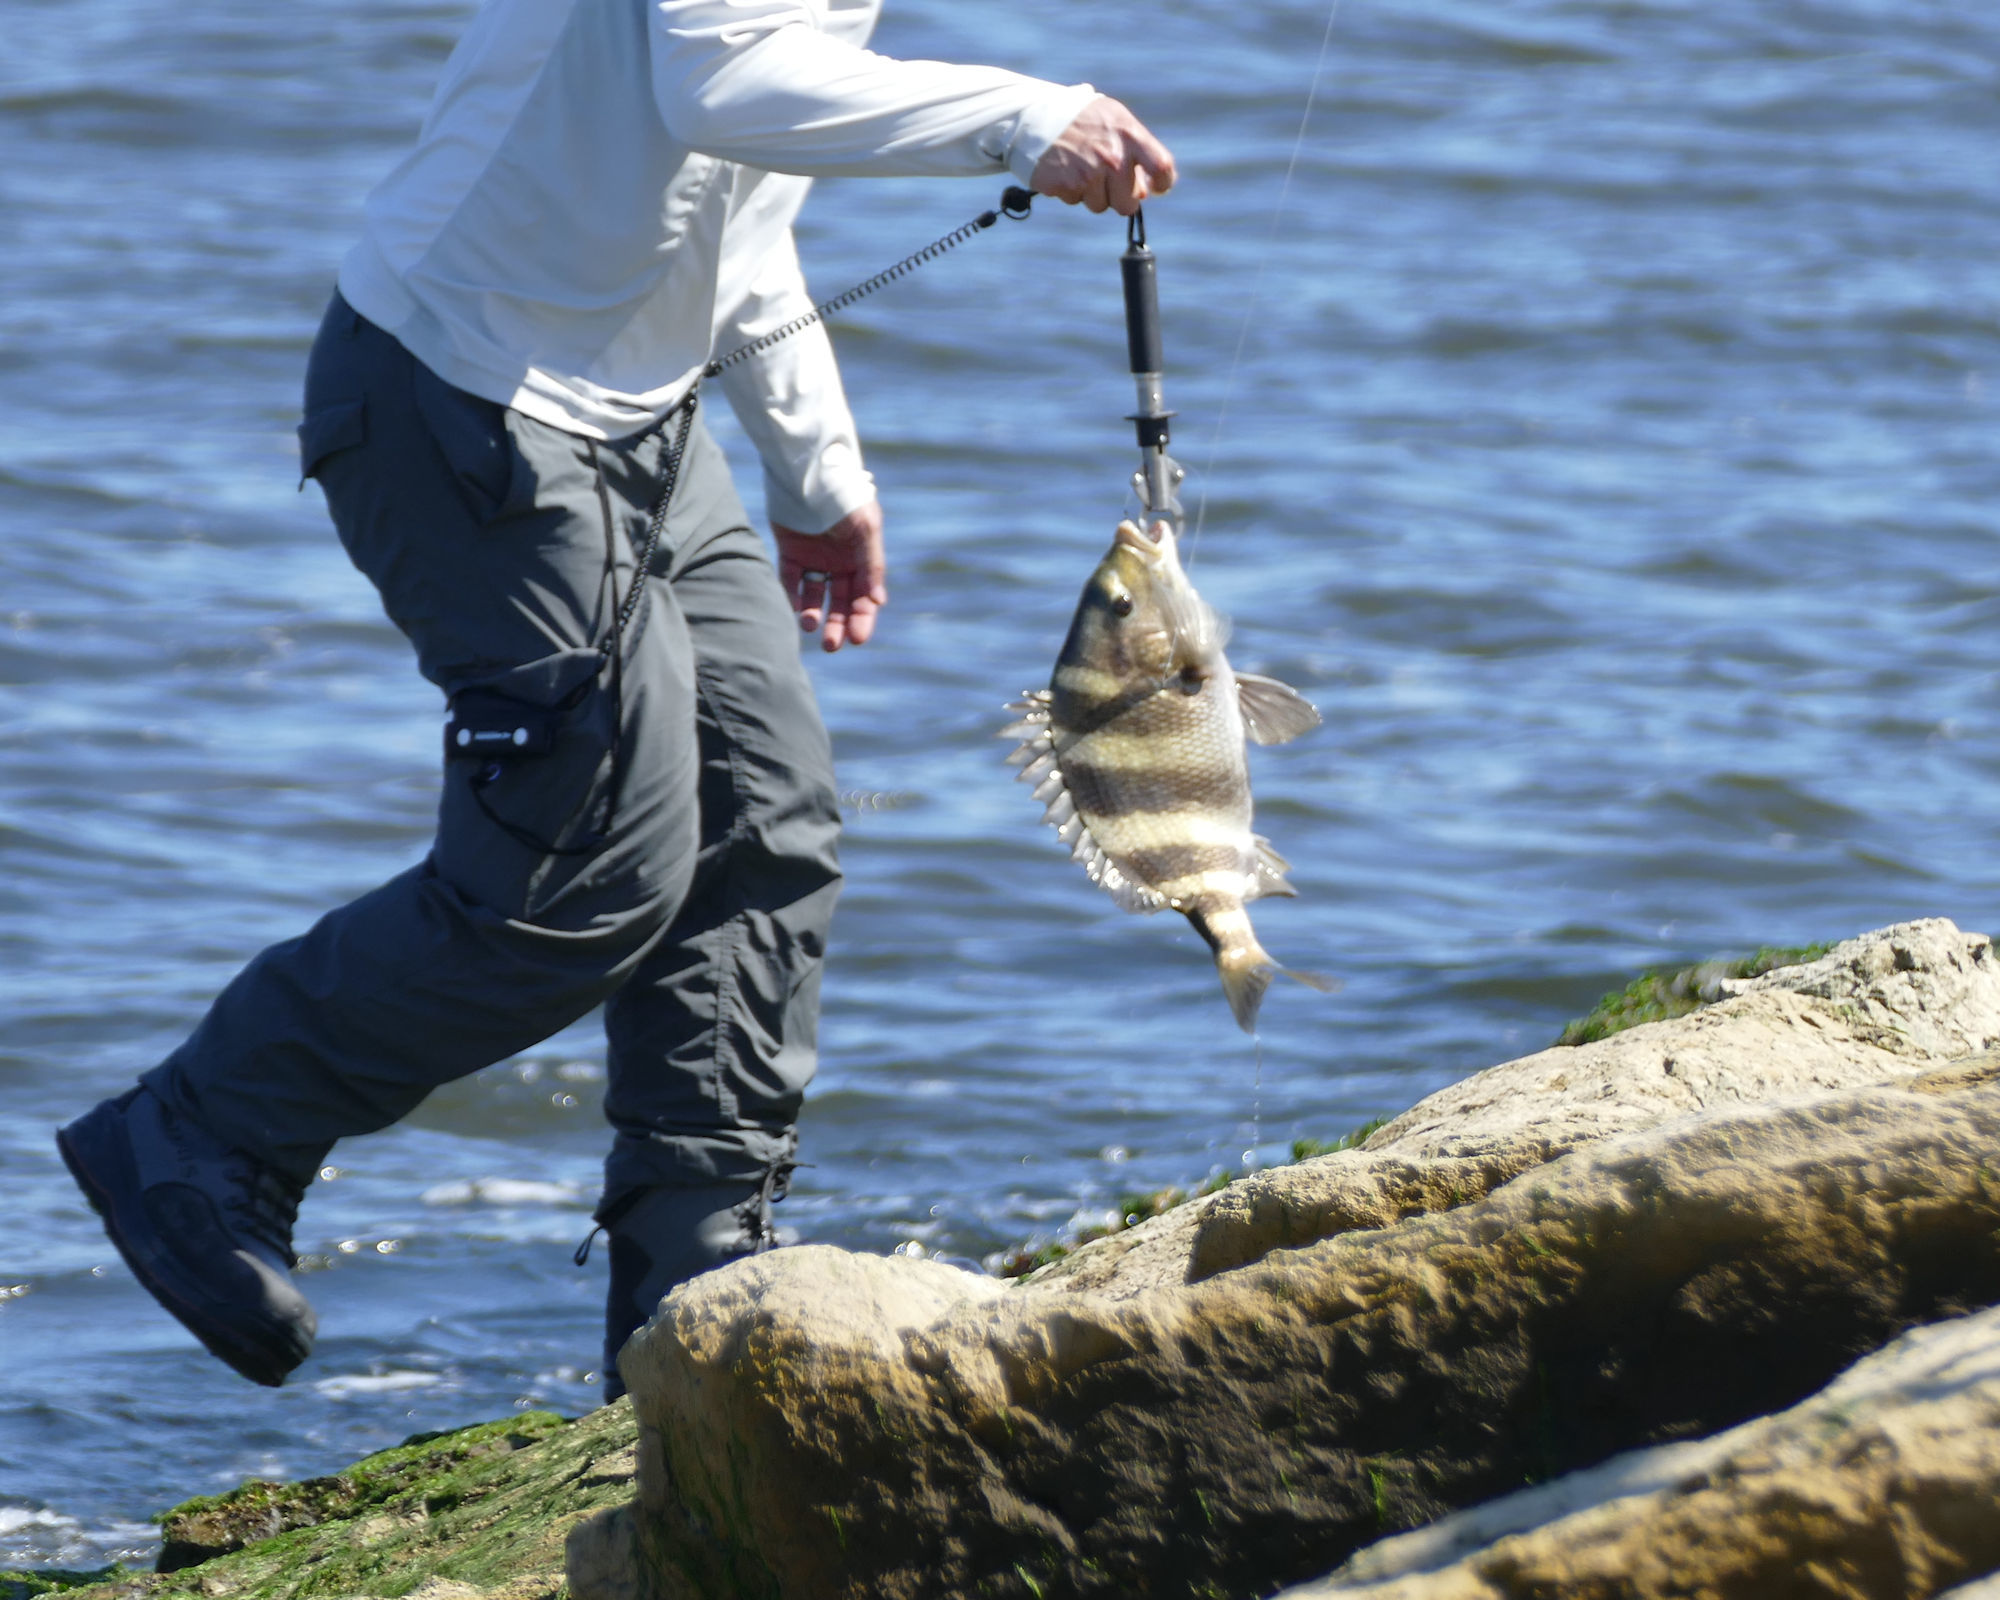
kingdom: Animalia
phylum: Chordata
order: Perciformes
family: Sparidae
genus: Archosargus
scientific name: Archosargus probatocephalus
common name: Sheepshead
